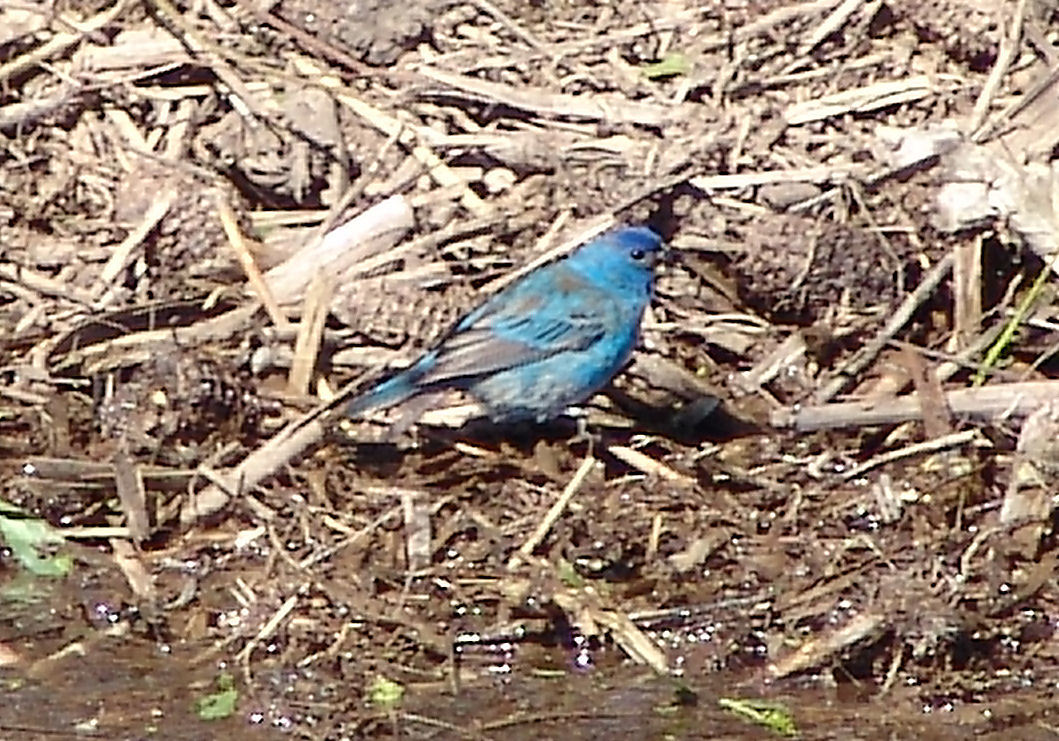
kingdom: Animalia
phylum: Chordata
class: Aves
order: Passeriformes
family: Cardinalidae
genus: Passerina
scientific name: Passerina cyanea
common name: Indigo bunting
